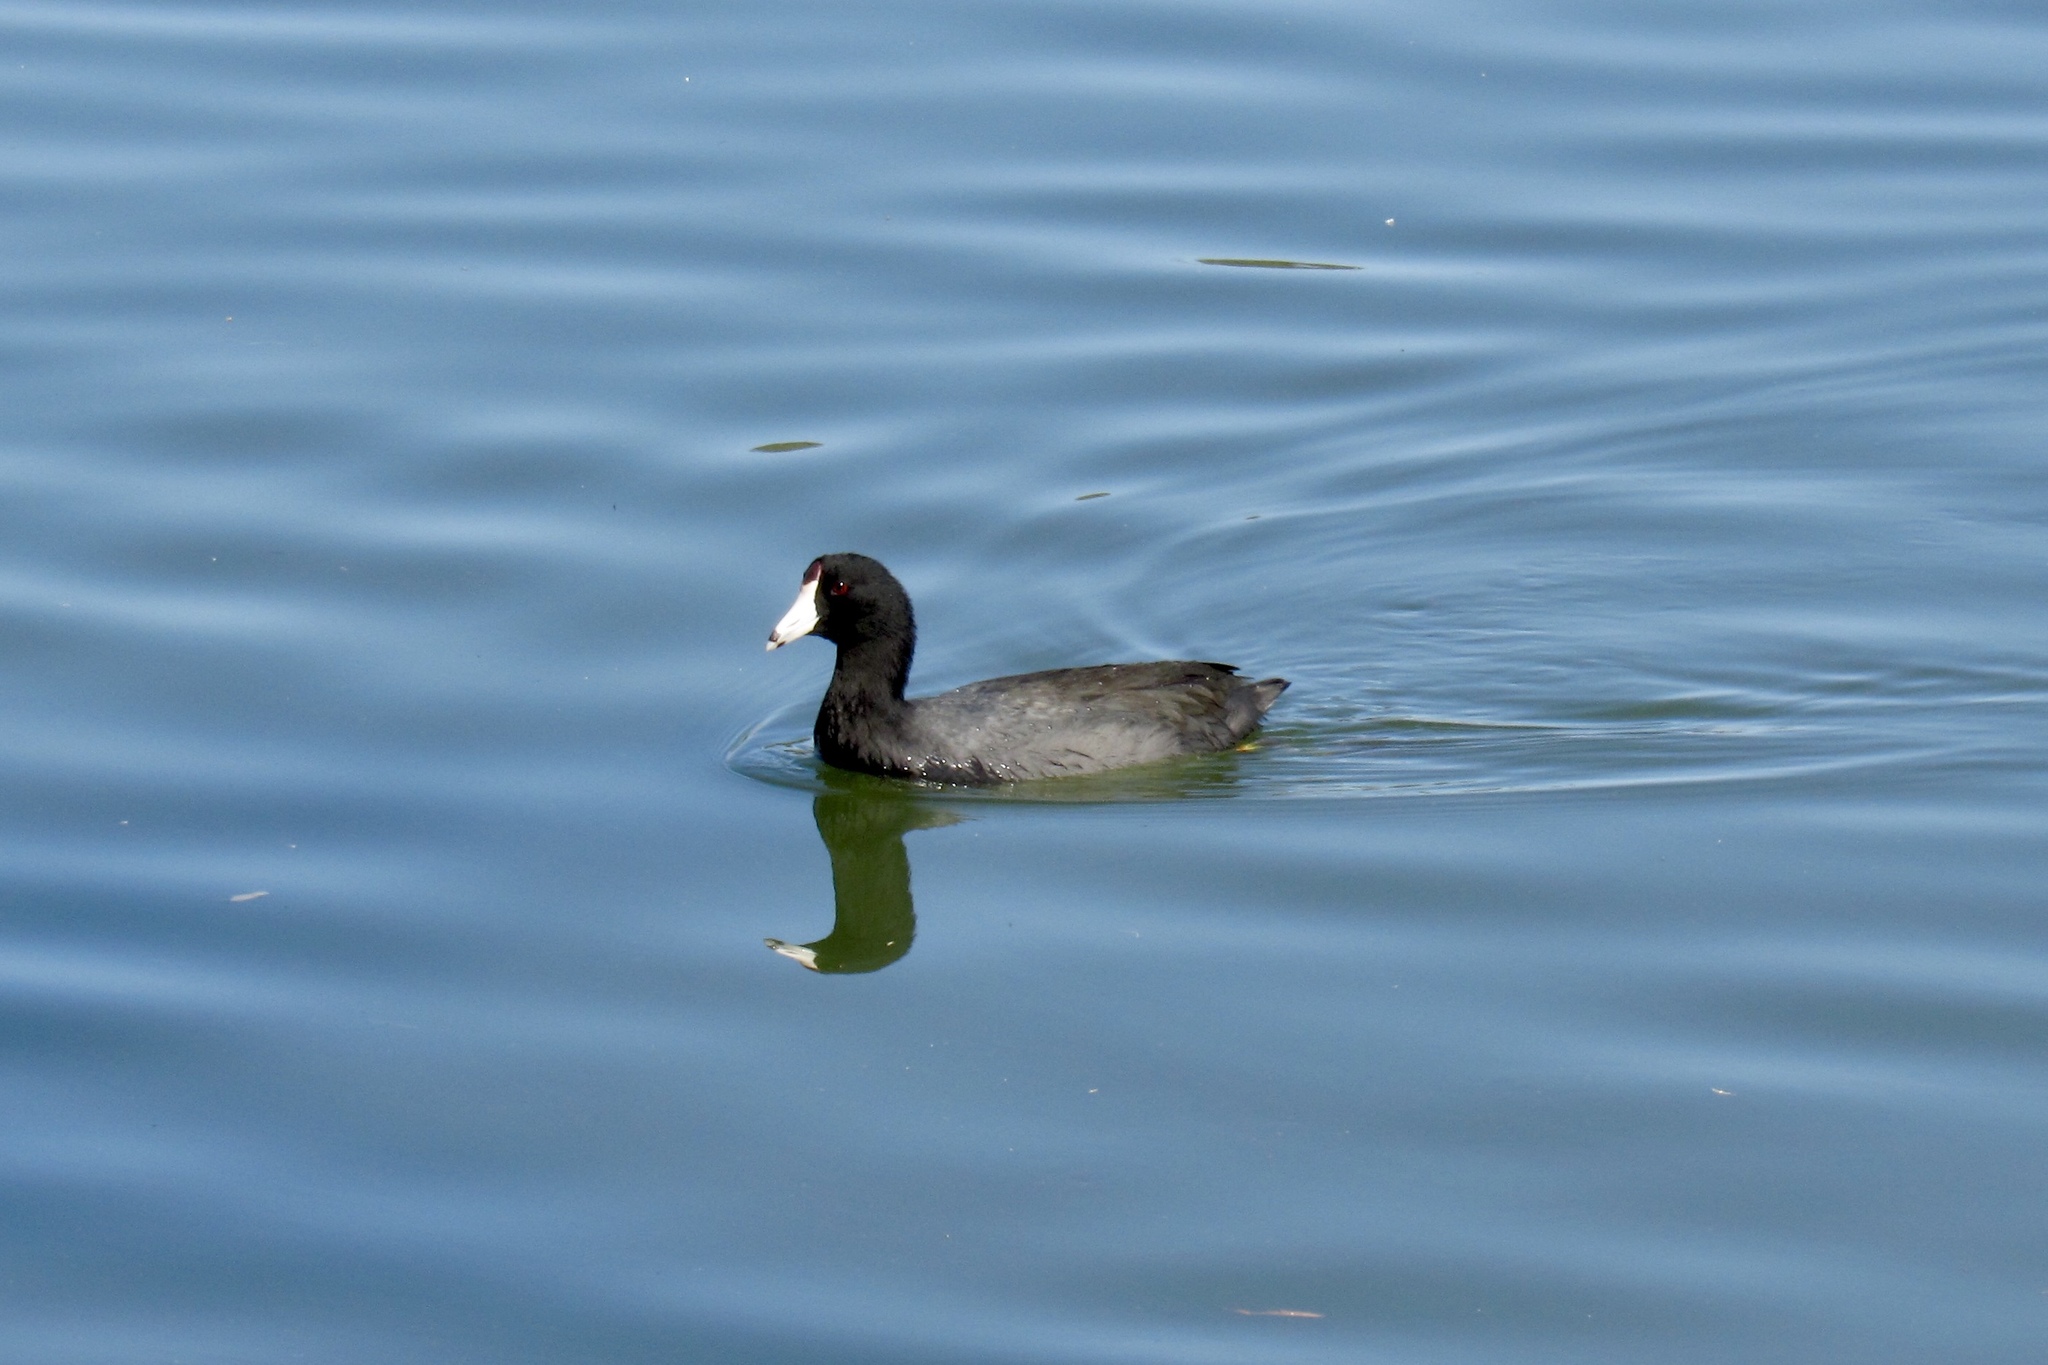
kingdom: Animalia
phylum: Chordata
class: Aves
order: Gruiformes
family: Rallidae
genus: Fulica
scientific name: Fulica americana
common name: American coot
